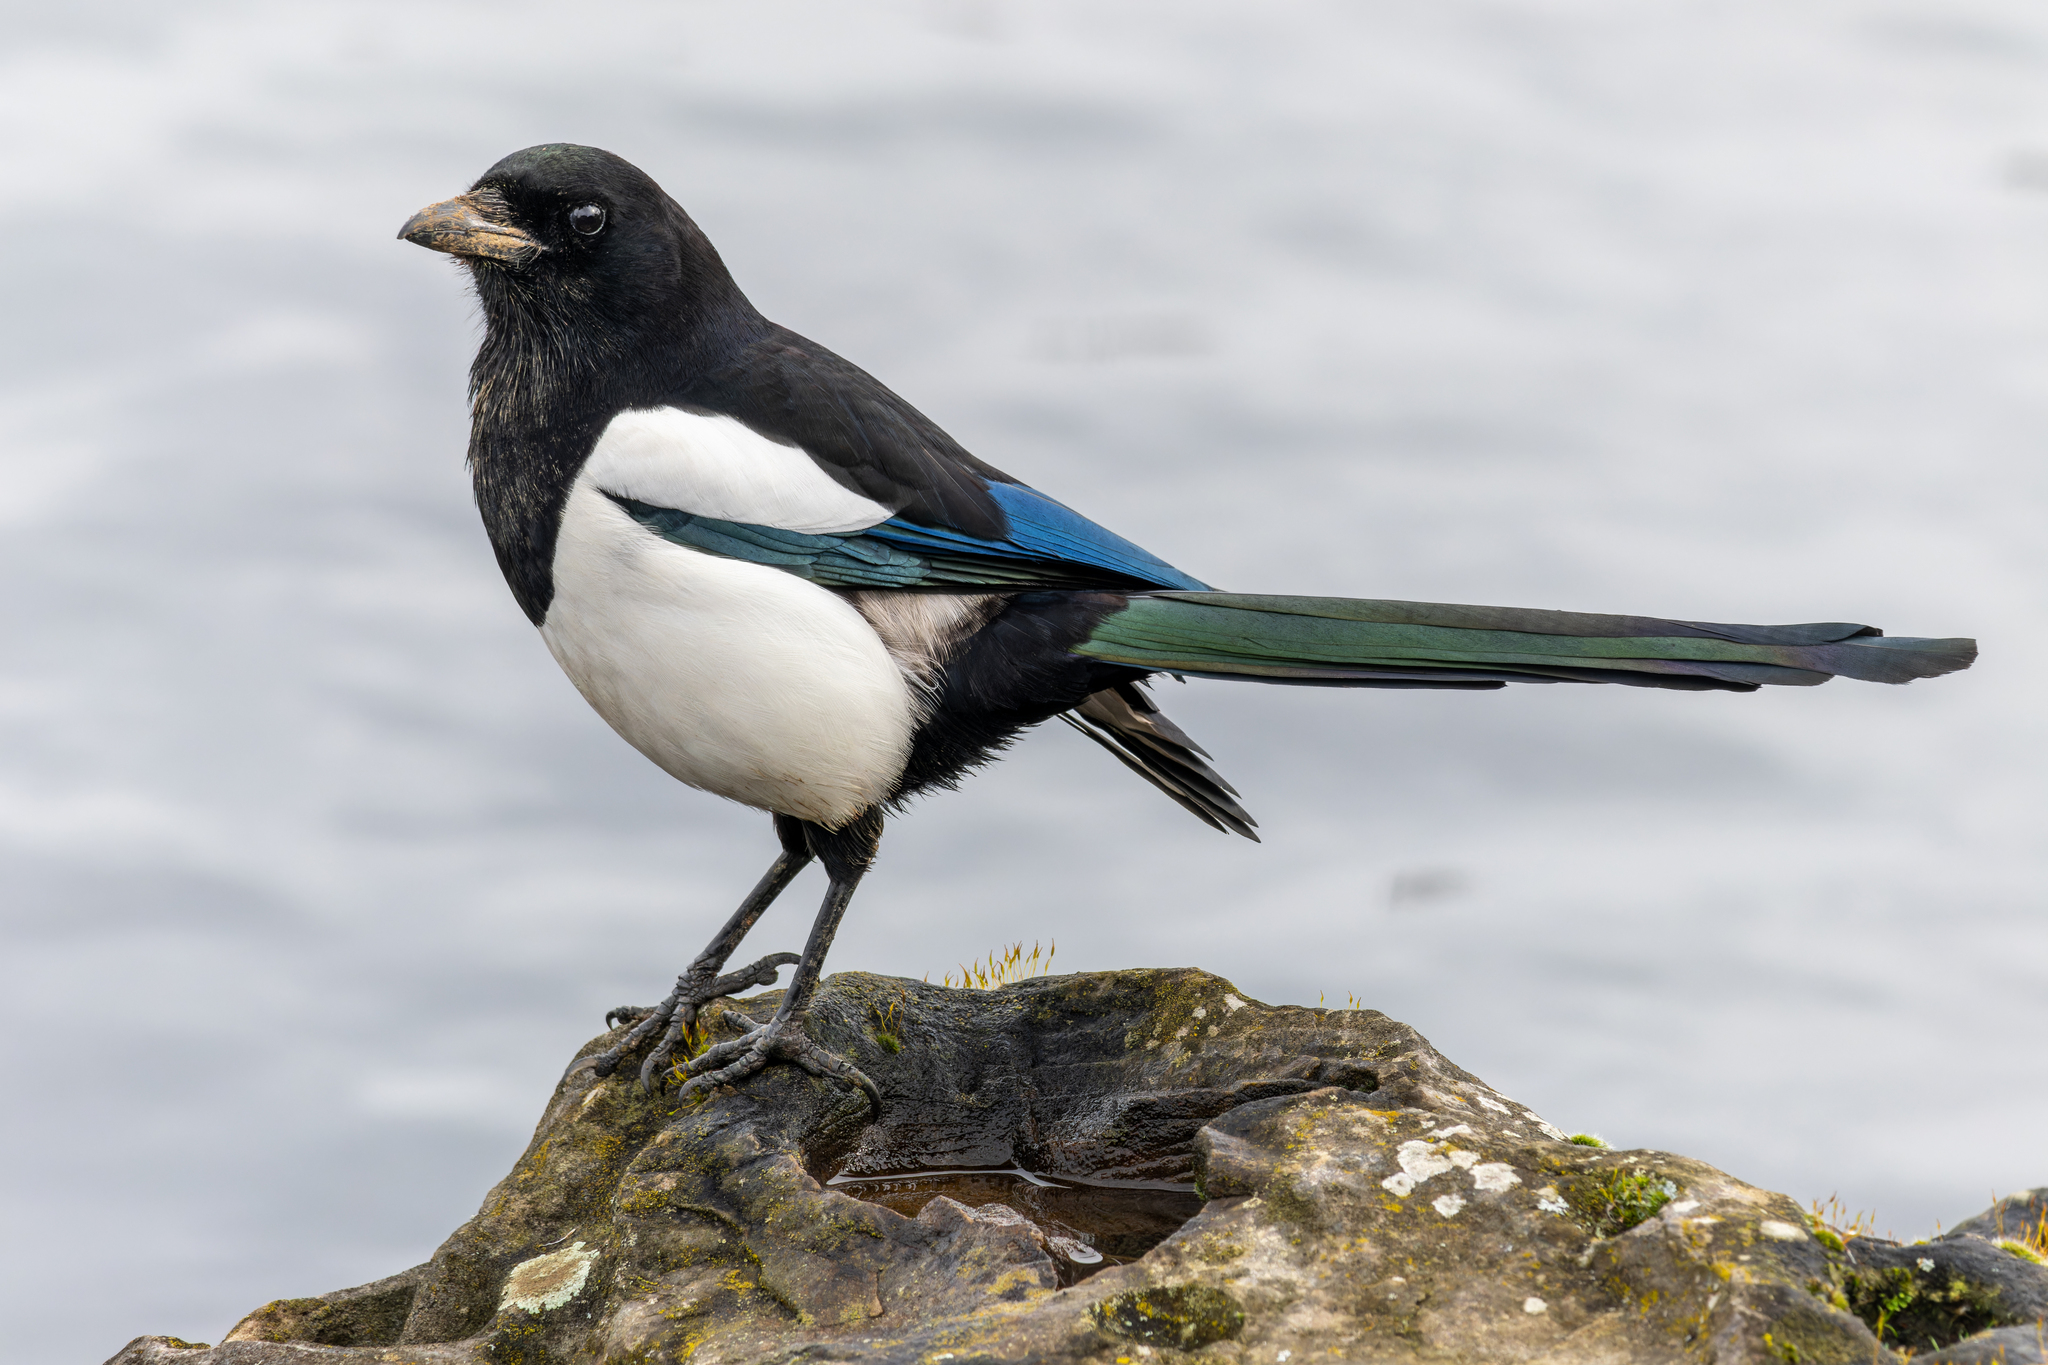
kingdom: Animalia
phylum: Chordata
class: Aves
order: Passeriformes
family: Corvidae
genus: Pica
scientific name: Pica pica
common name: Eurasian magpie
